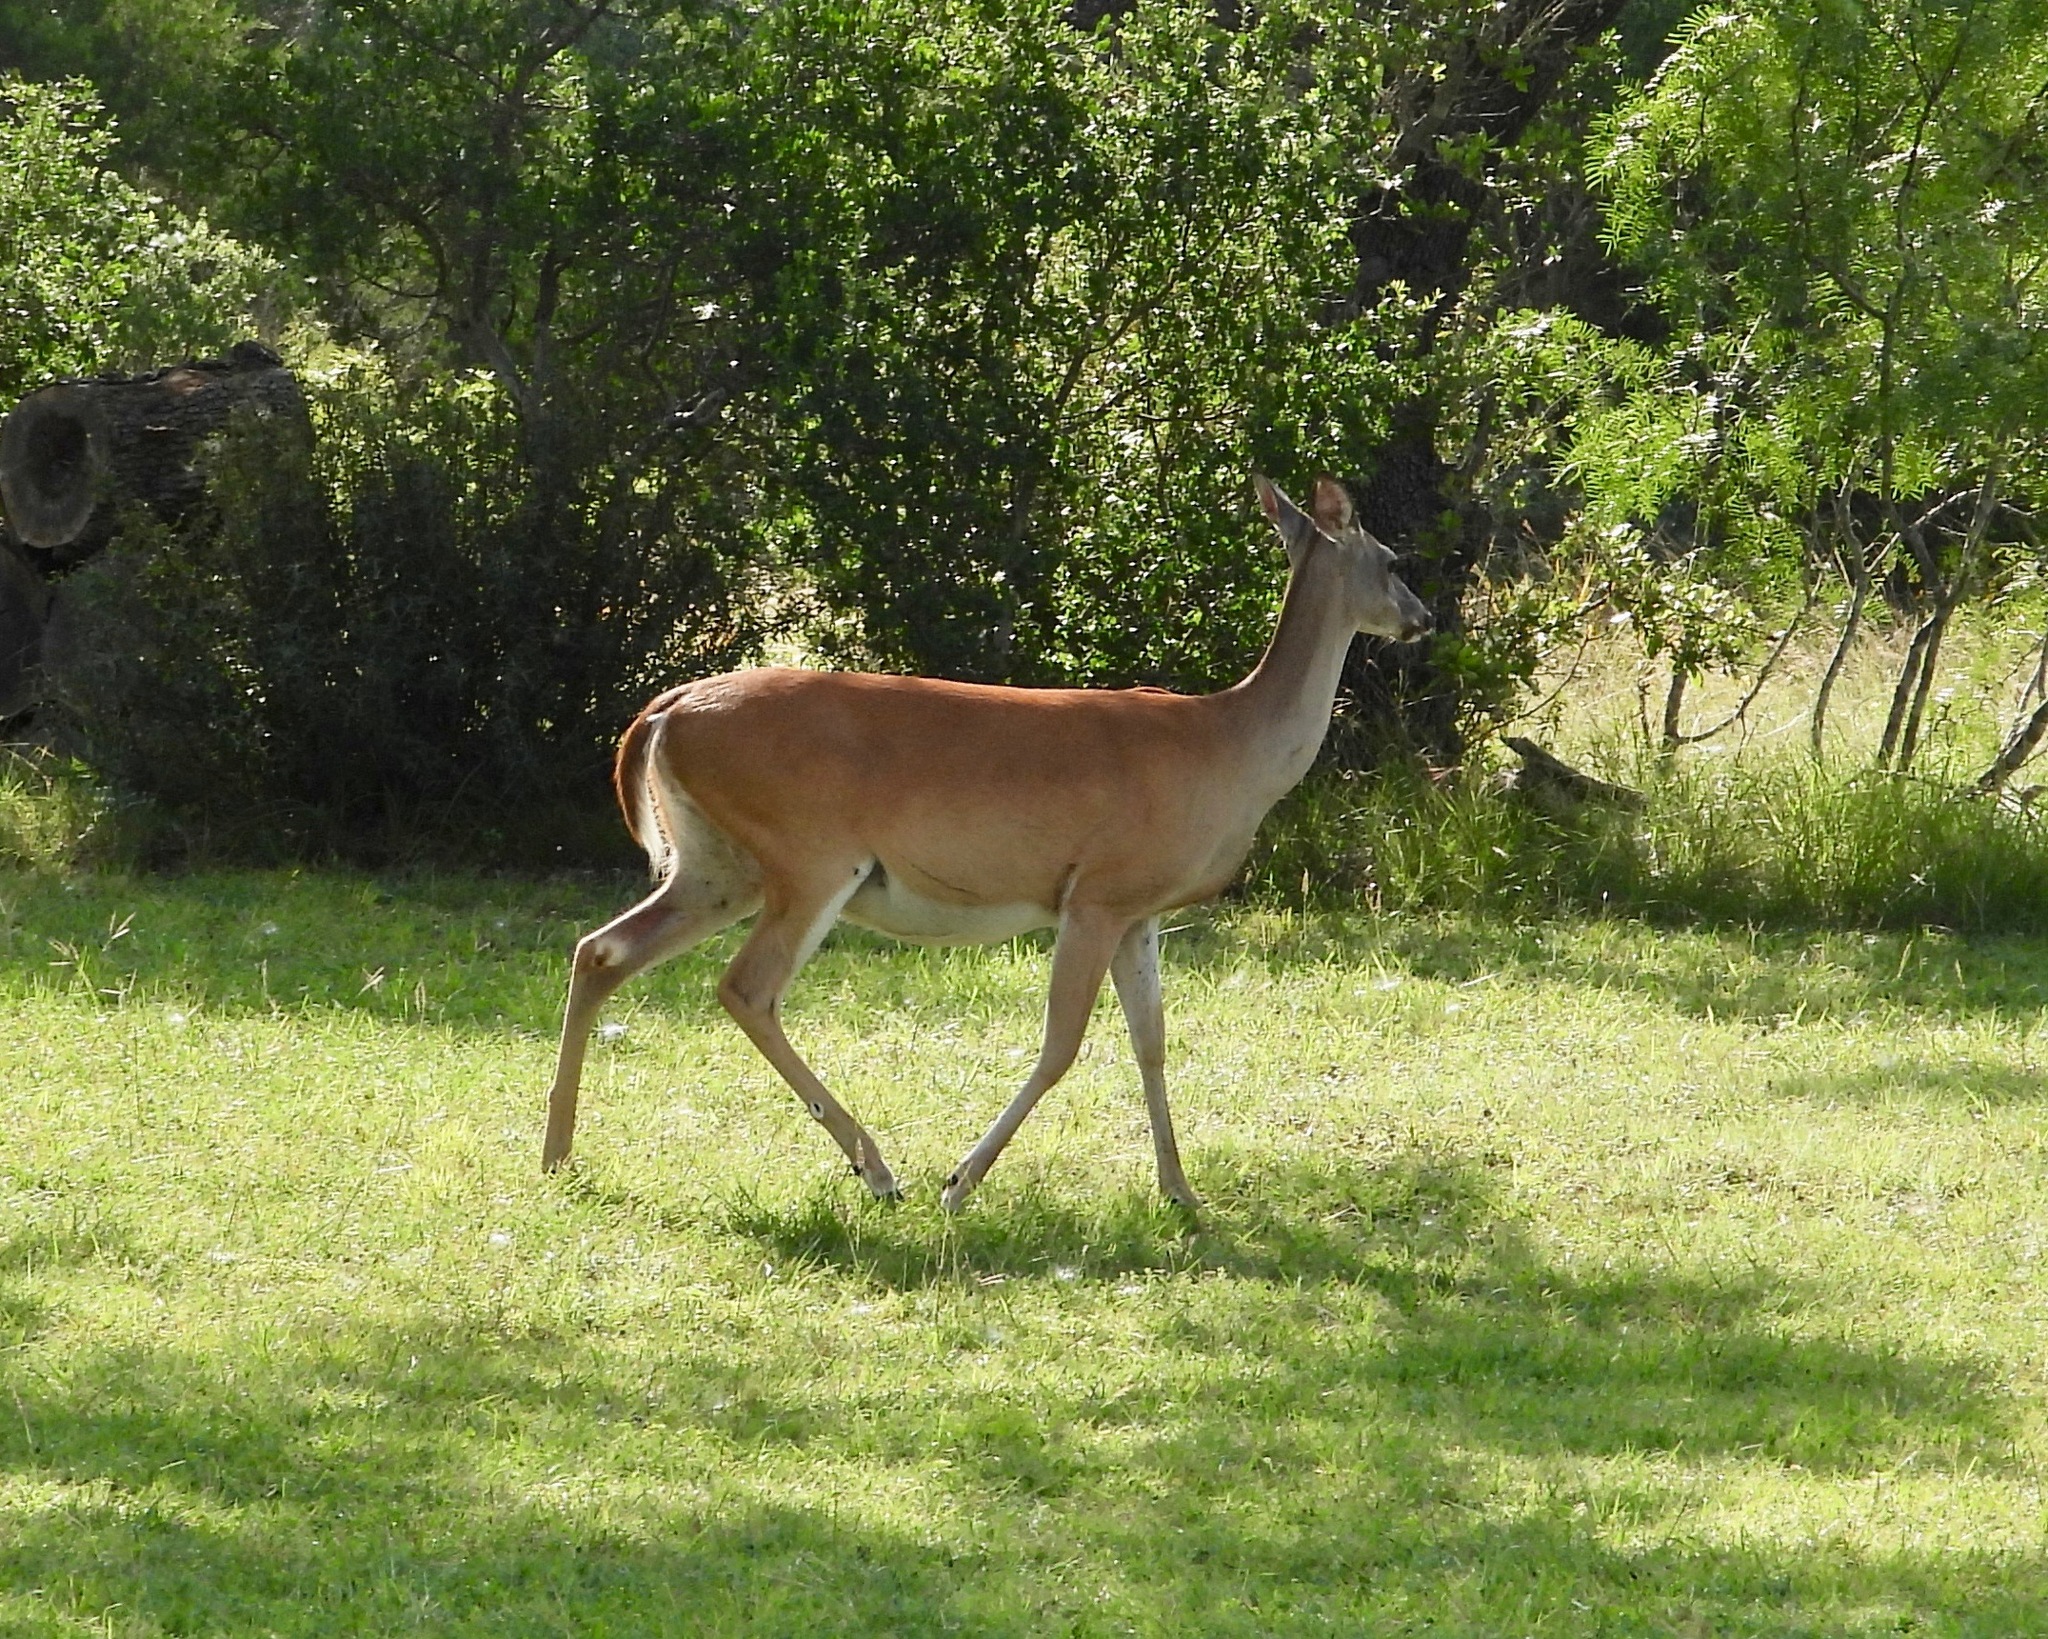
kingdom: Animalia
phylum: Chordata
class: Mammalia
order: Artiodactyla
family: Cervidae
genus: Odocoileus
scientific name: Odocoileus virginianus
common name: White-tailed deer
